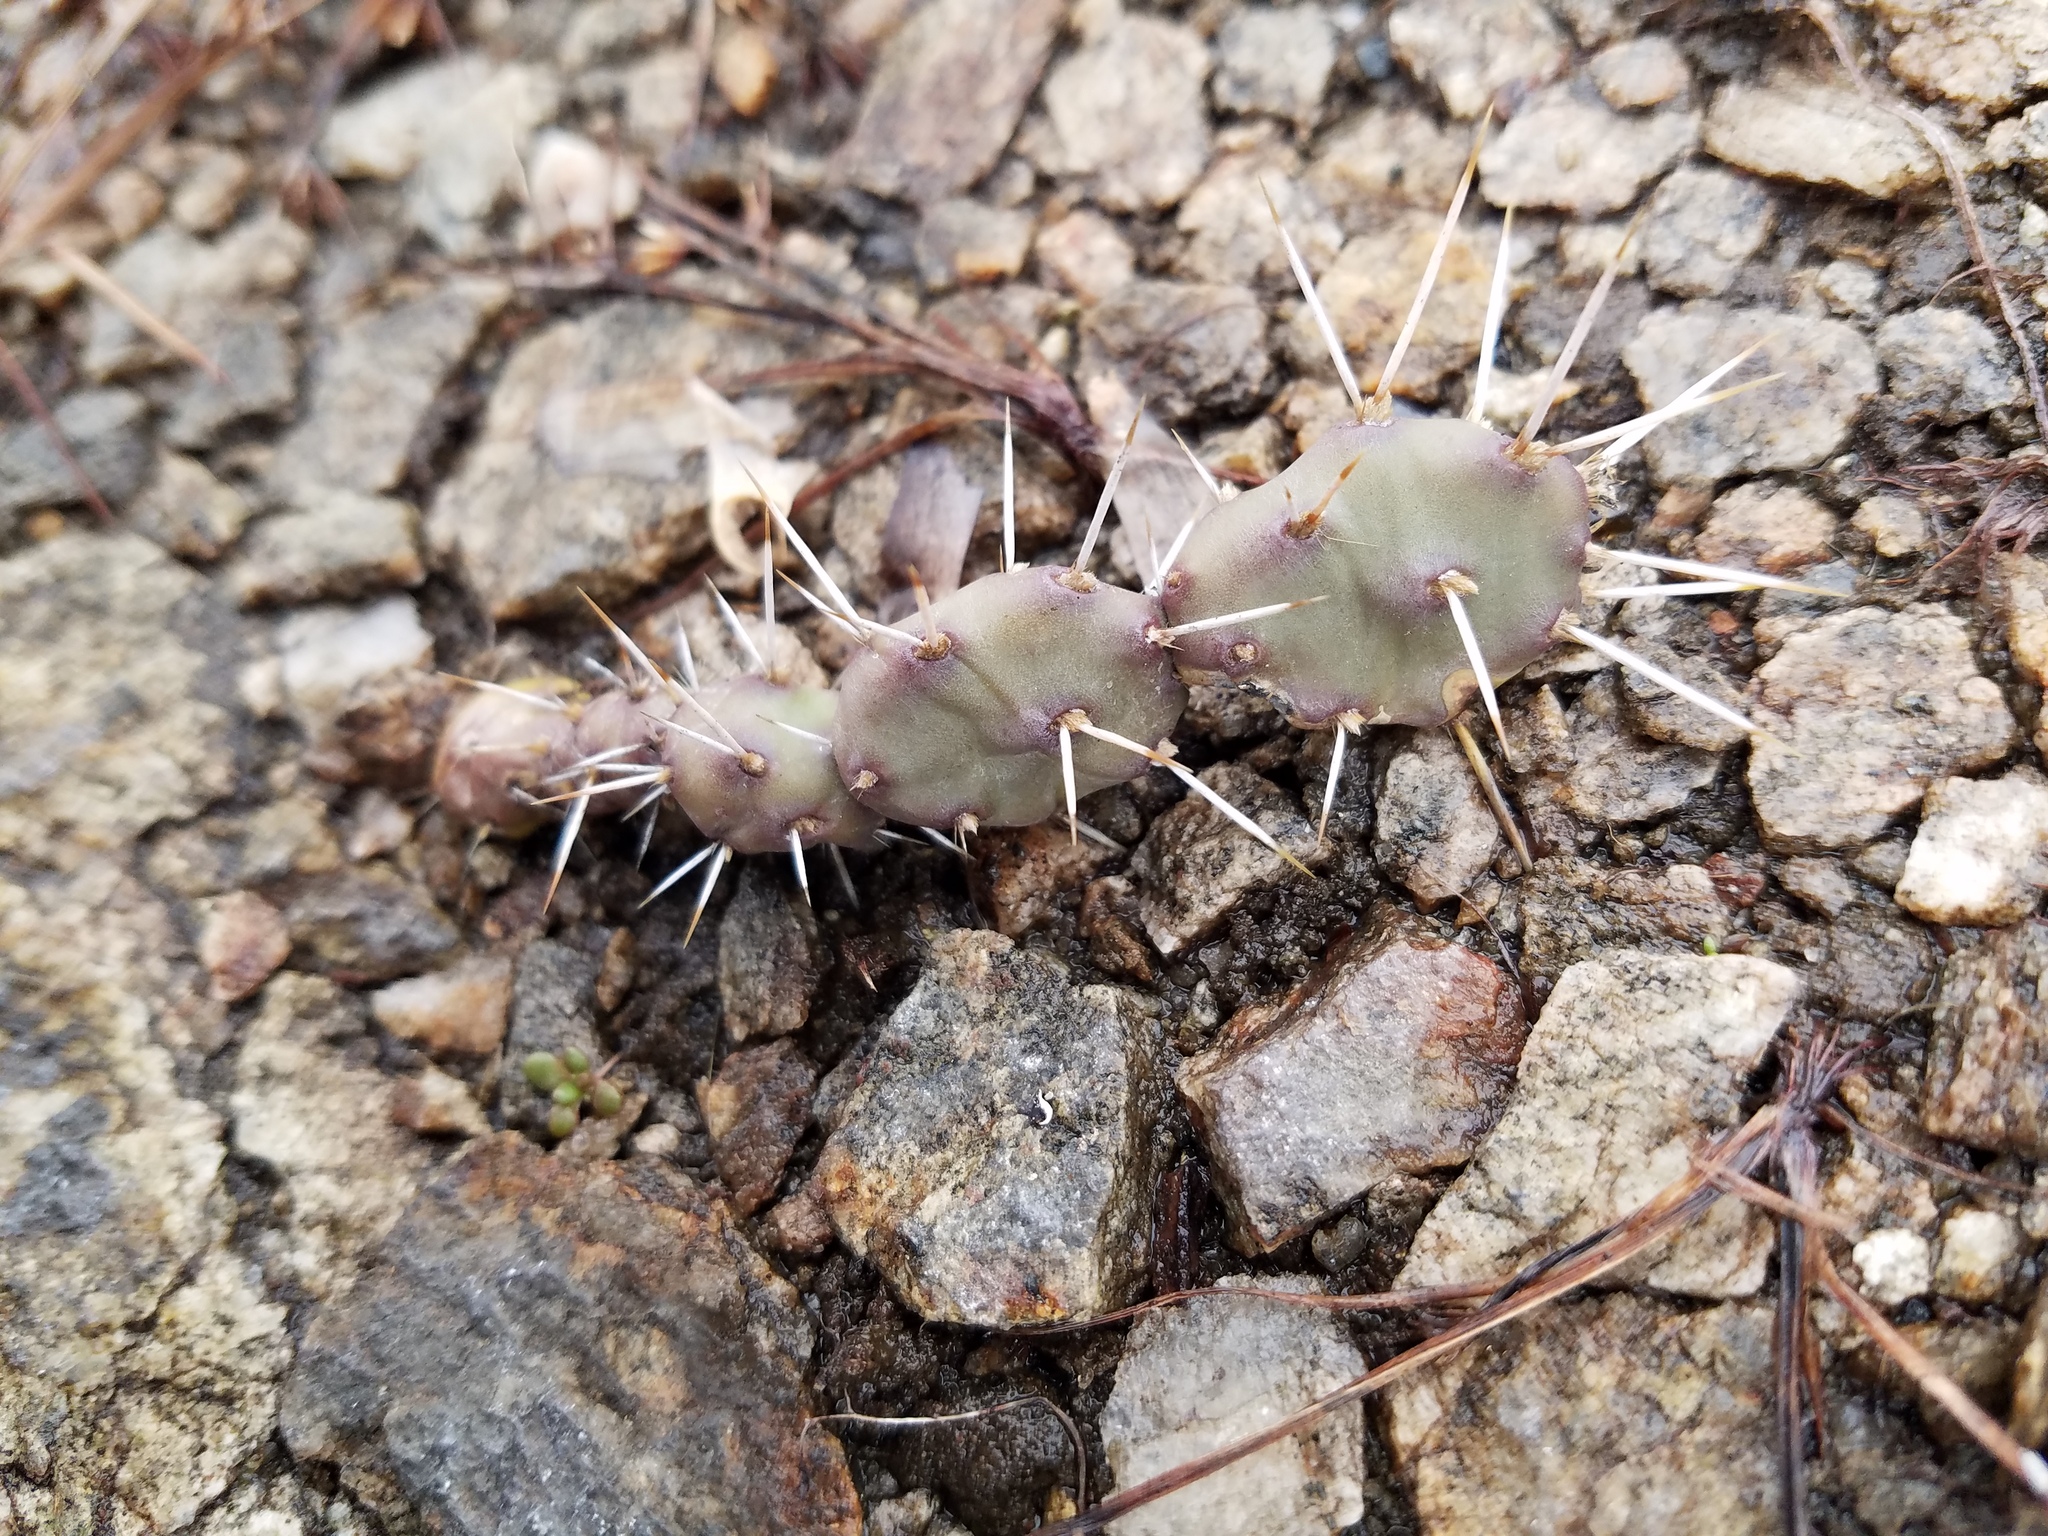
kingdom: Plantae
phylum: Tracheophyta
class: Magnoliopsida
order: Caryophyllales
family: Cactaceae
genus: Opuntia
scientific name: Opuntia drummondii
